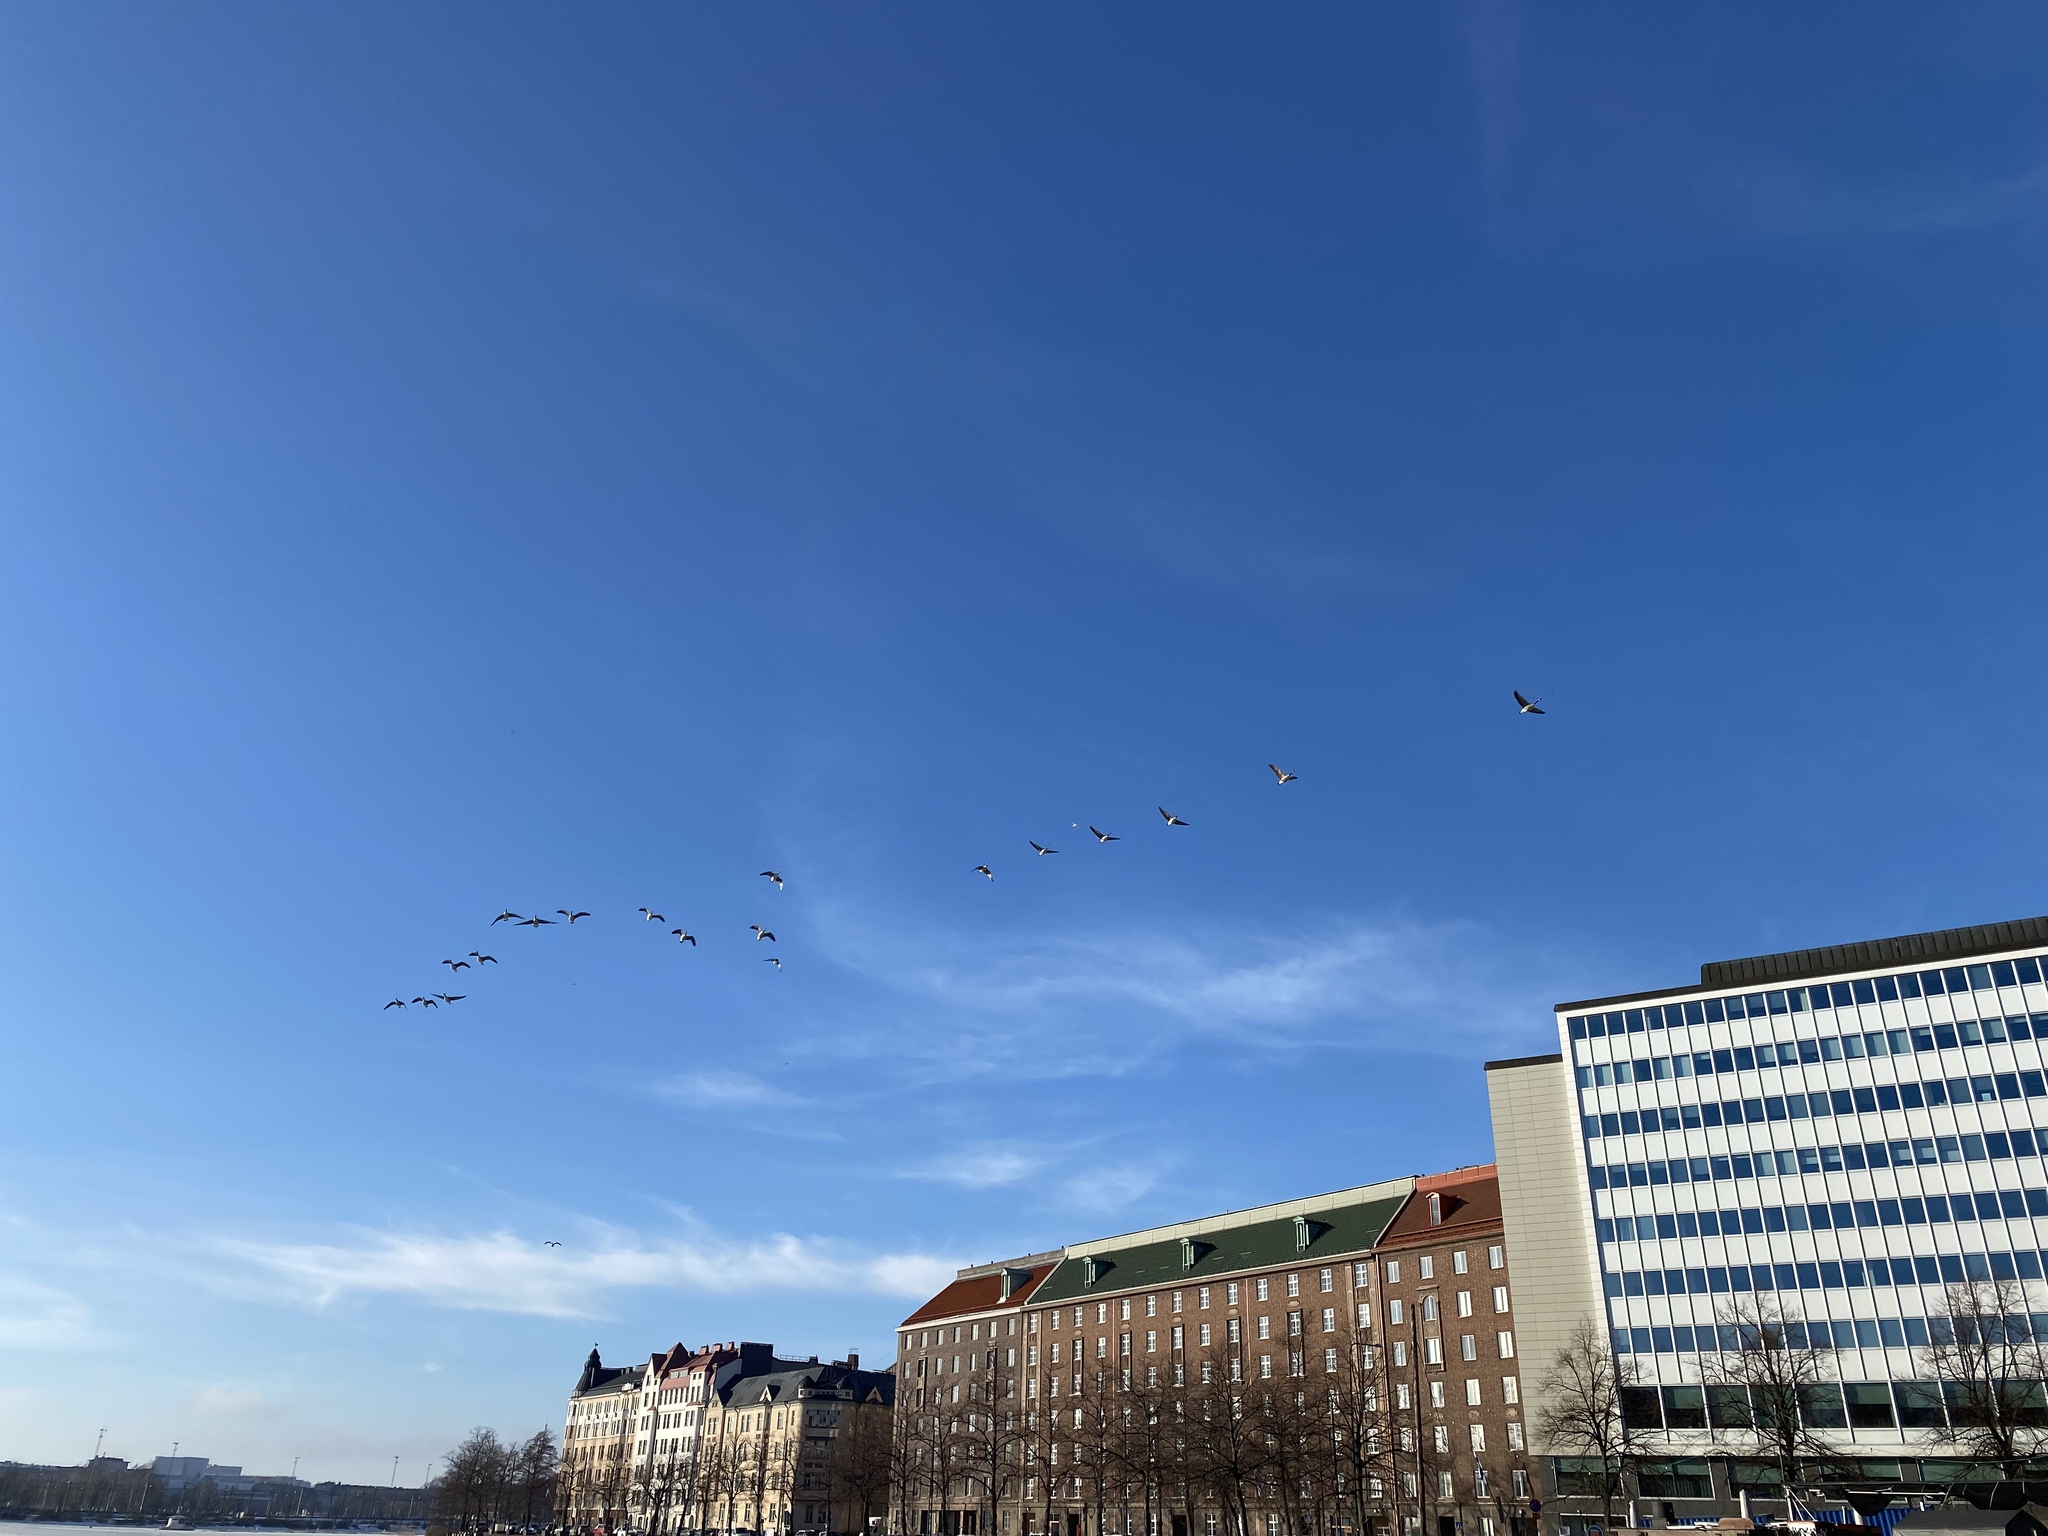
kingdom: Animalia
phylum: Chordata
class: Aves
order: Anseriformes
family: Anatidae
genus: Branta
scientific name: Branta canadensis
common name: Canada goose
